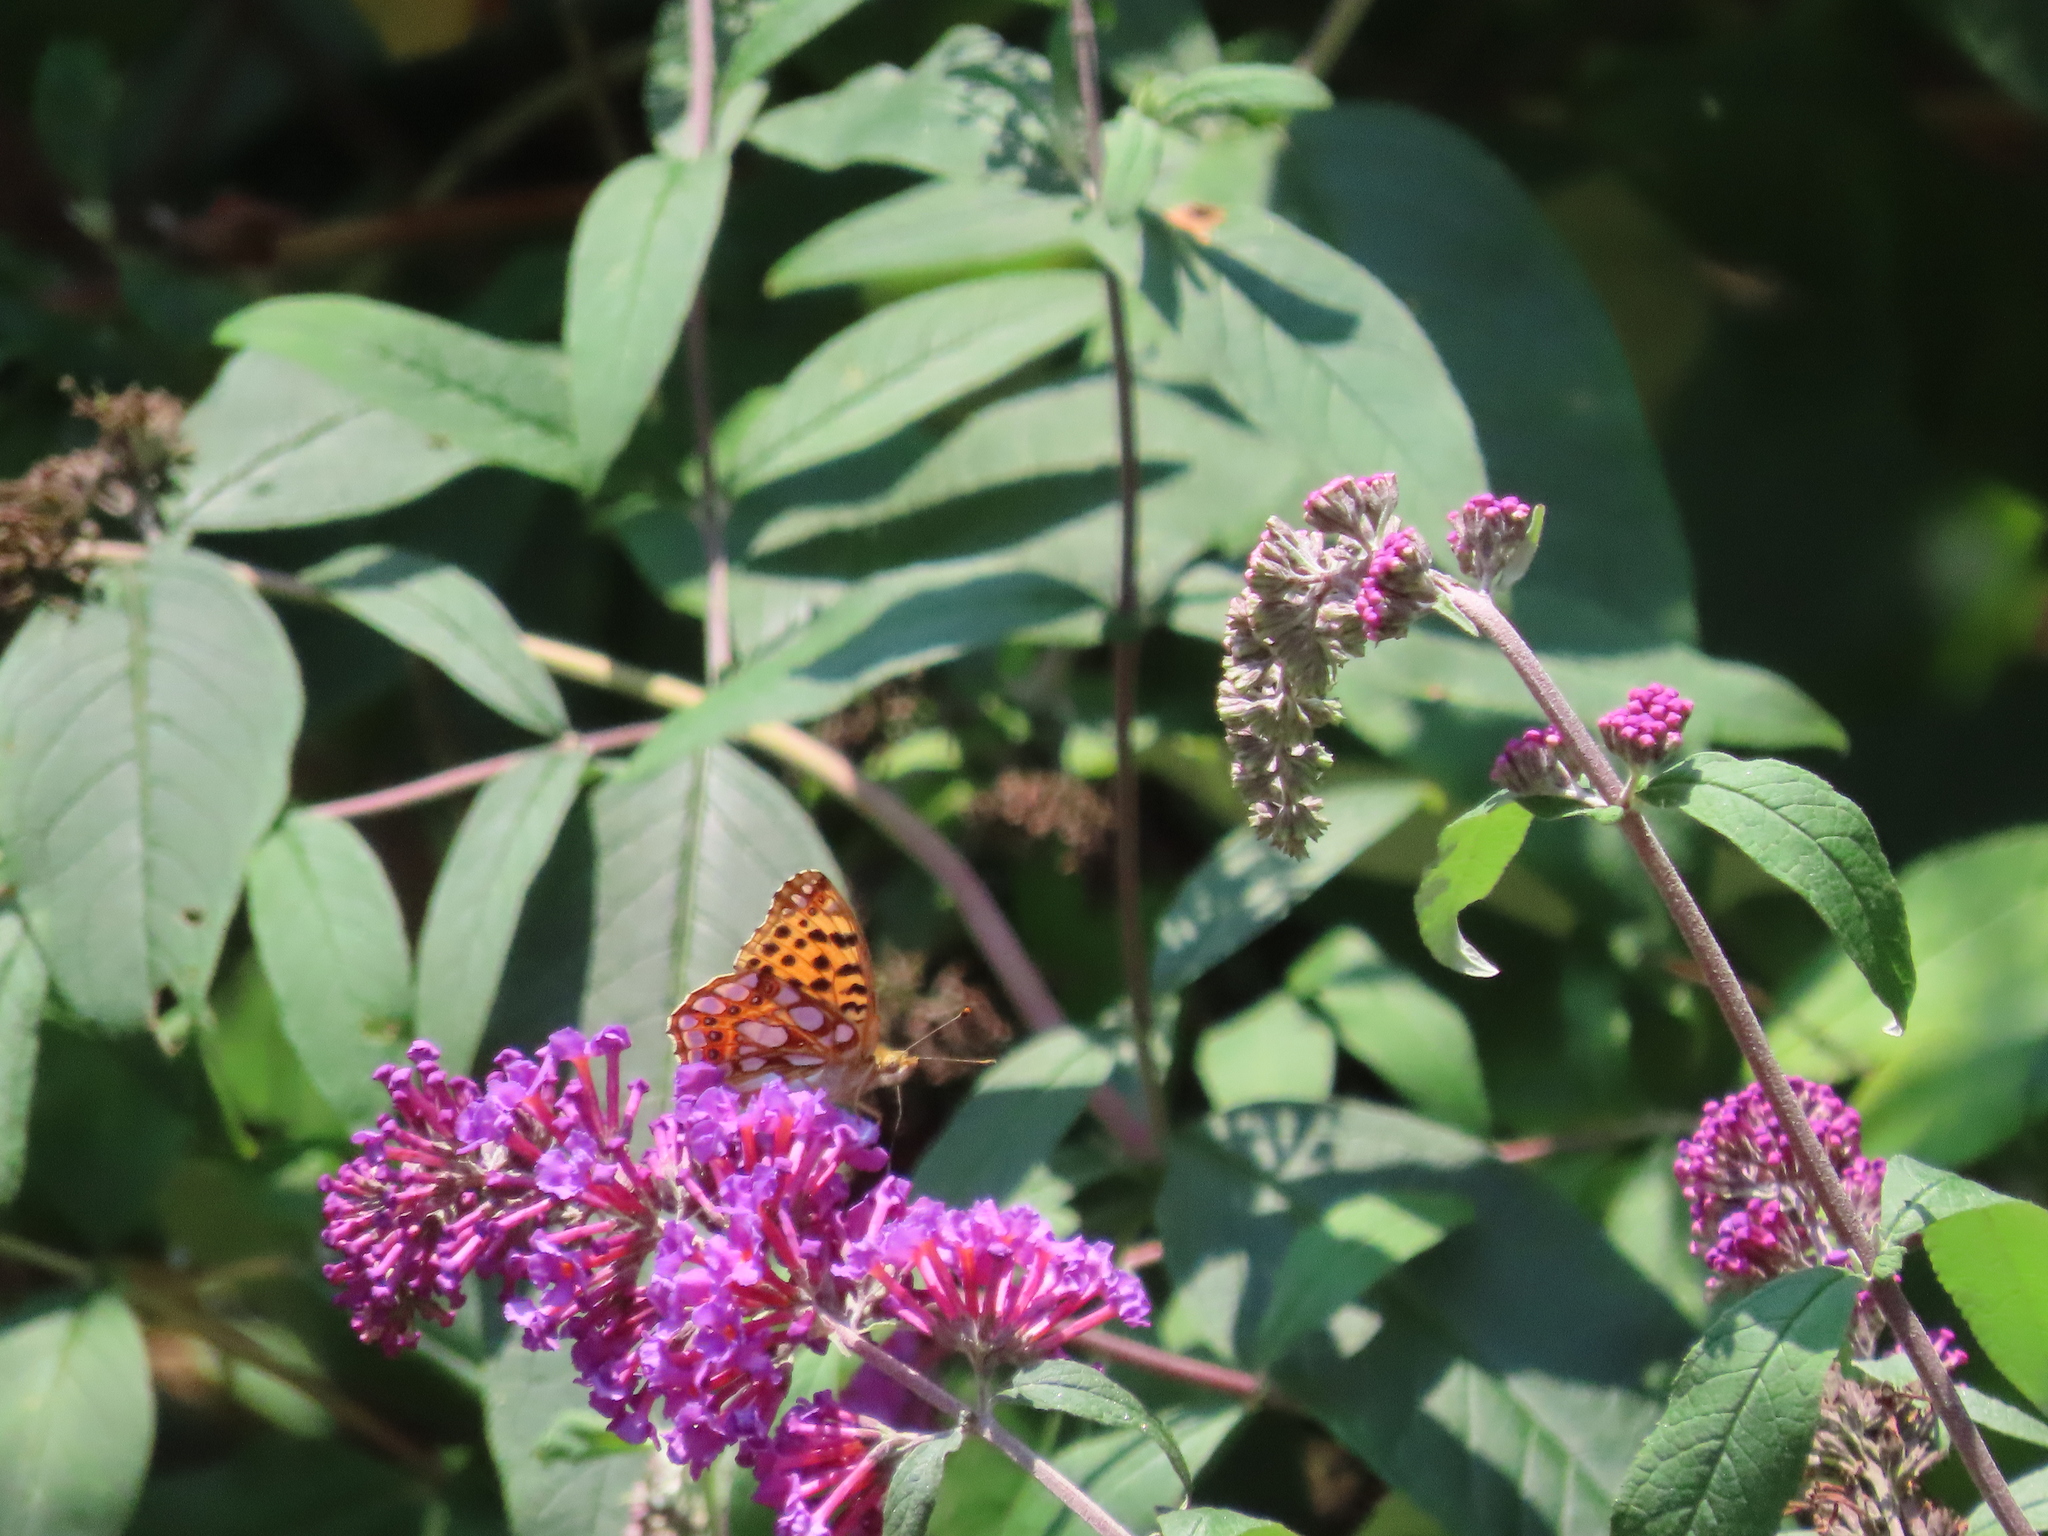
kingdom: Animalia
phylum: Arthropoda
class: Insecta
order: Lepidoptera
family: Nymphalidae
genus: Issoria
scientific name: Issoria lathonia
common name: Queen of spain fritillary
